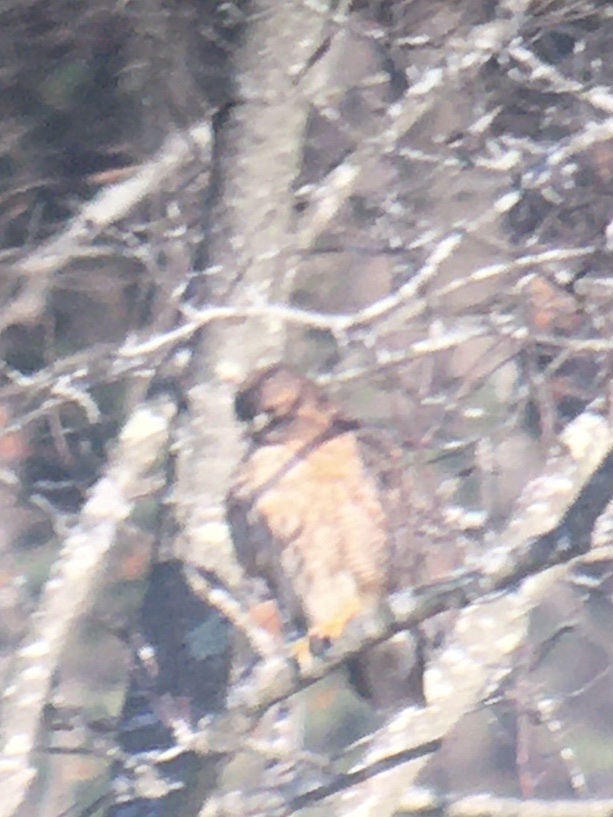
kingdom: Animalia
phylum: Chordata
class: Aves
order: Accipitriformes
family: Accipitridae
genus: Buteo
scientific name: Buteo jamaicensis
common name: Red-tailed hawk
